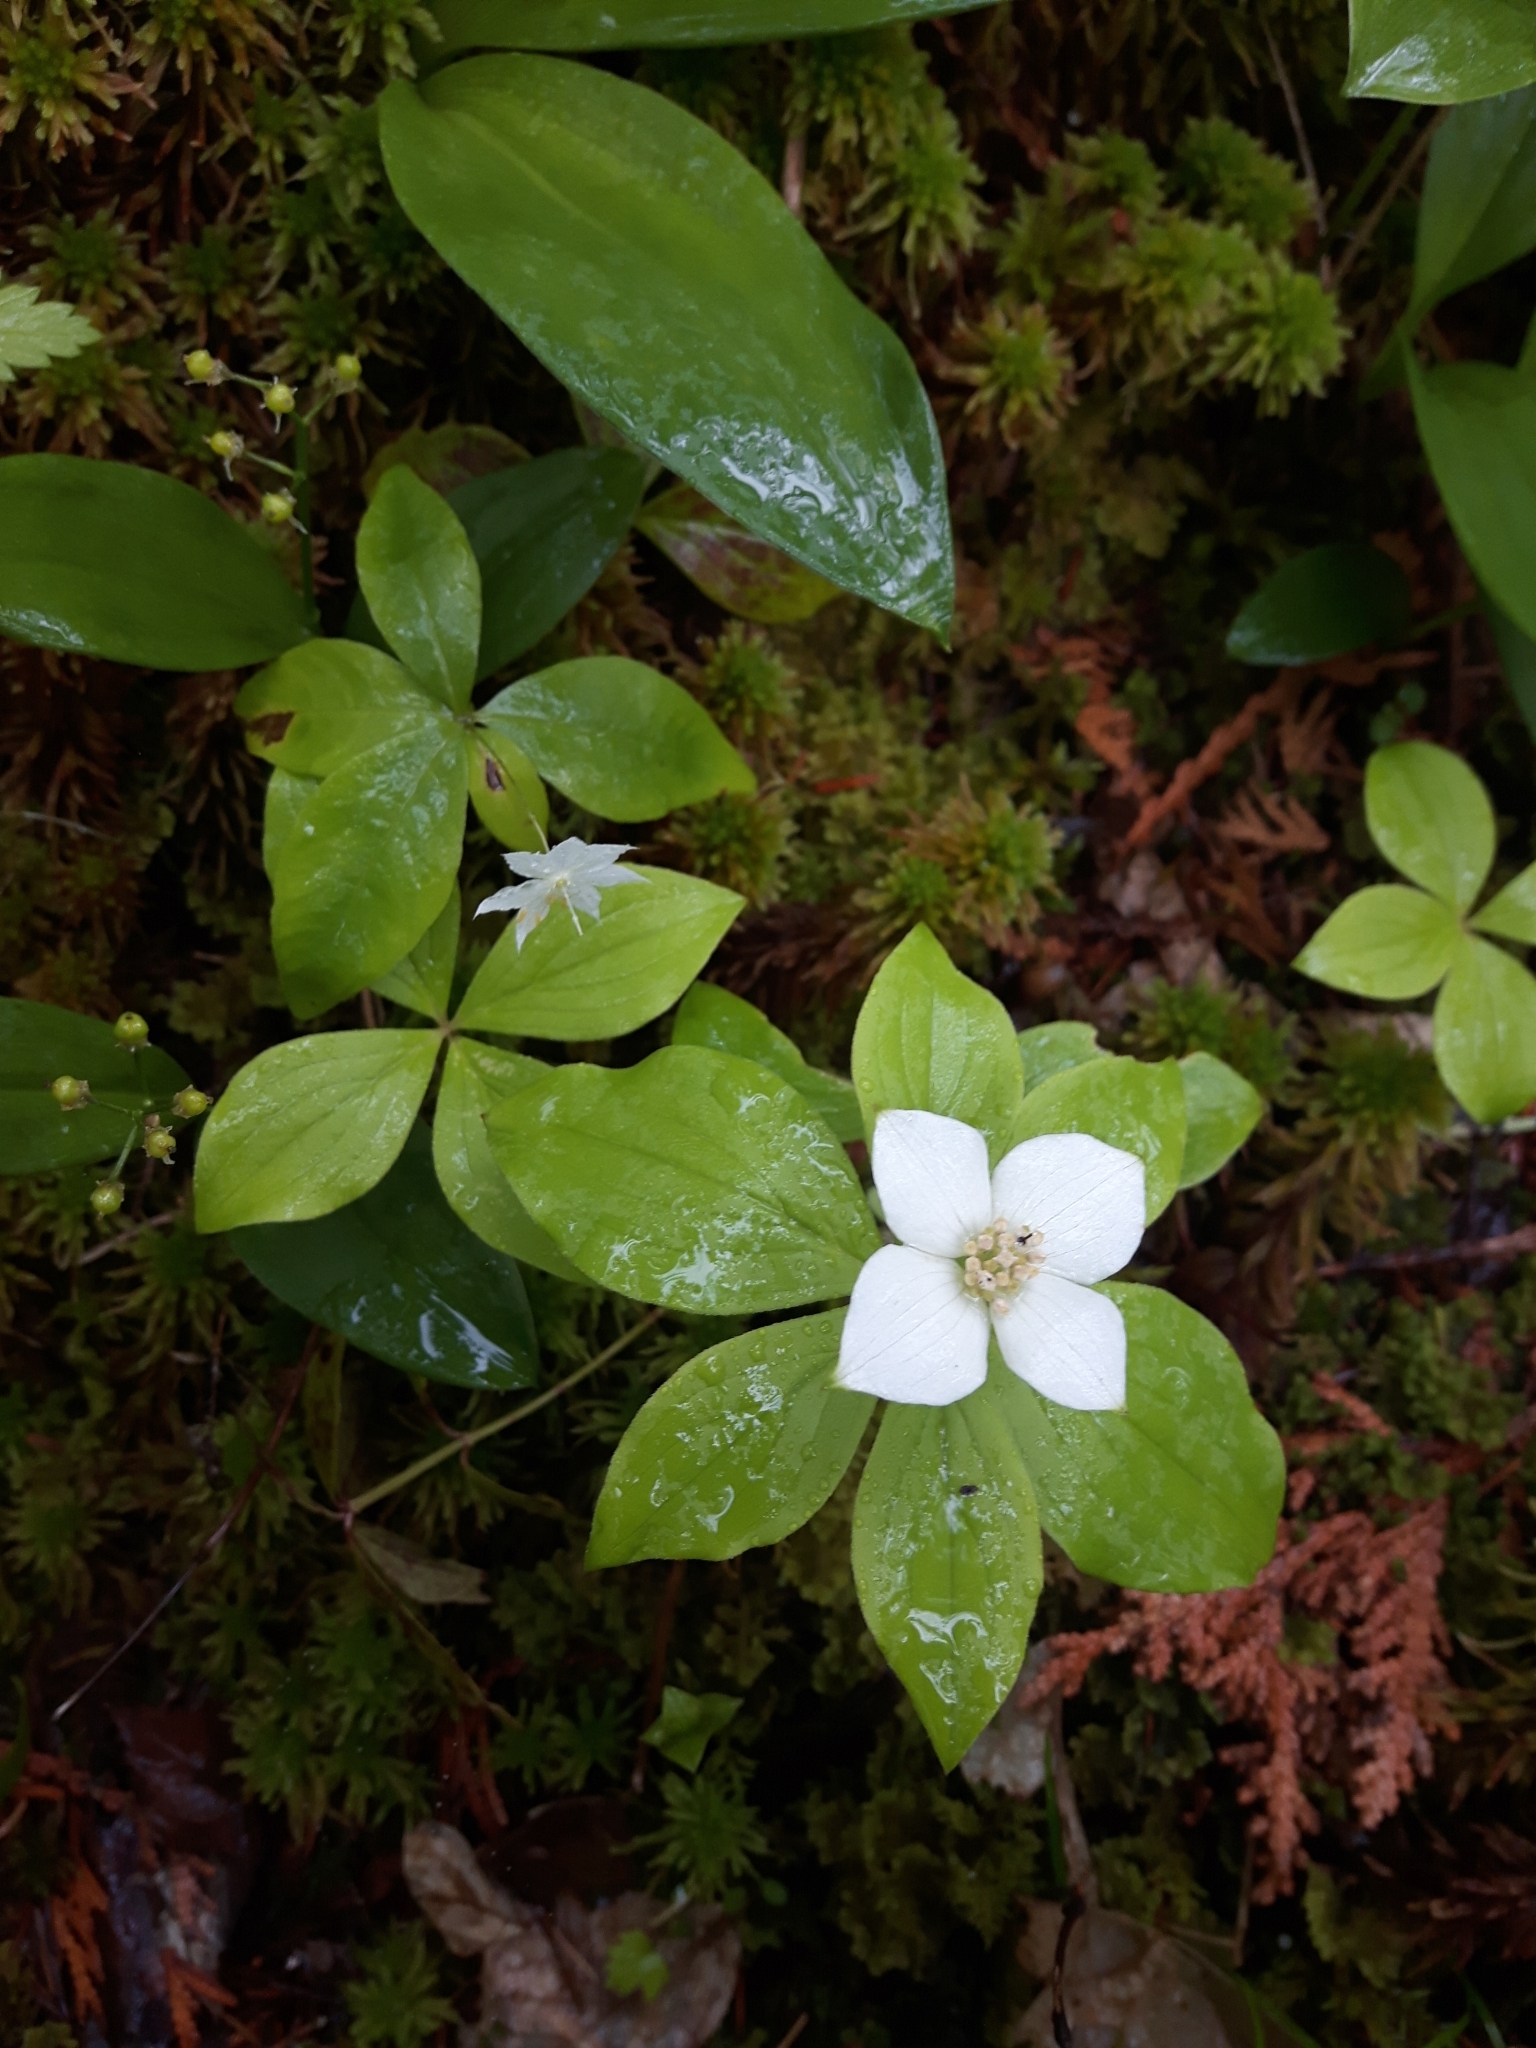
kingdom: Plantae
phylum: Tracheophyta
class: Magnoliopsida
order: Cornales
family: Cornaceae
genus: Cornus
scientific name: Cornus canadensis
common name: Creeping dogwood
